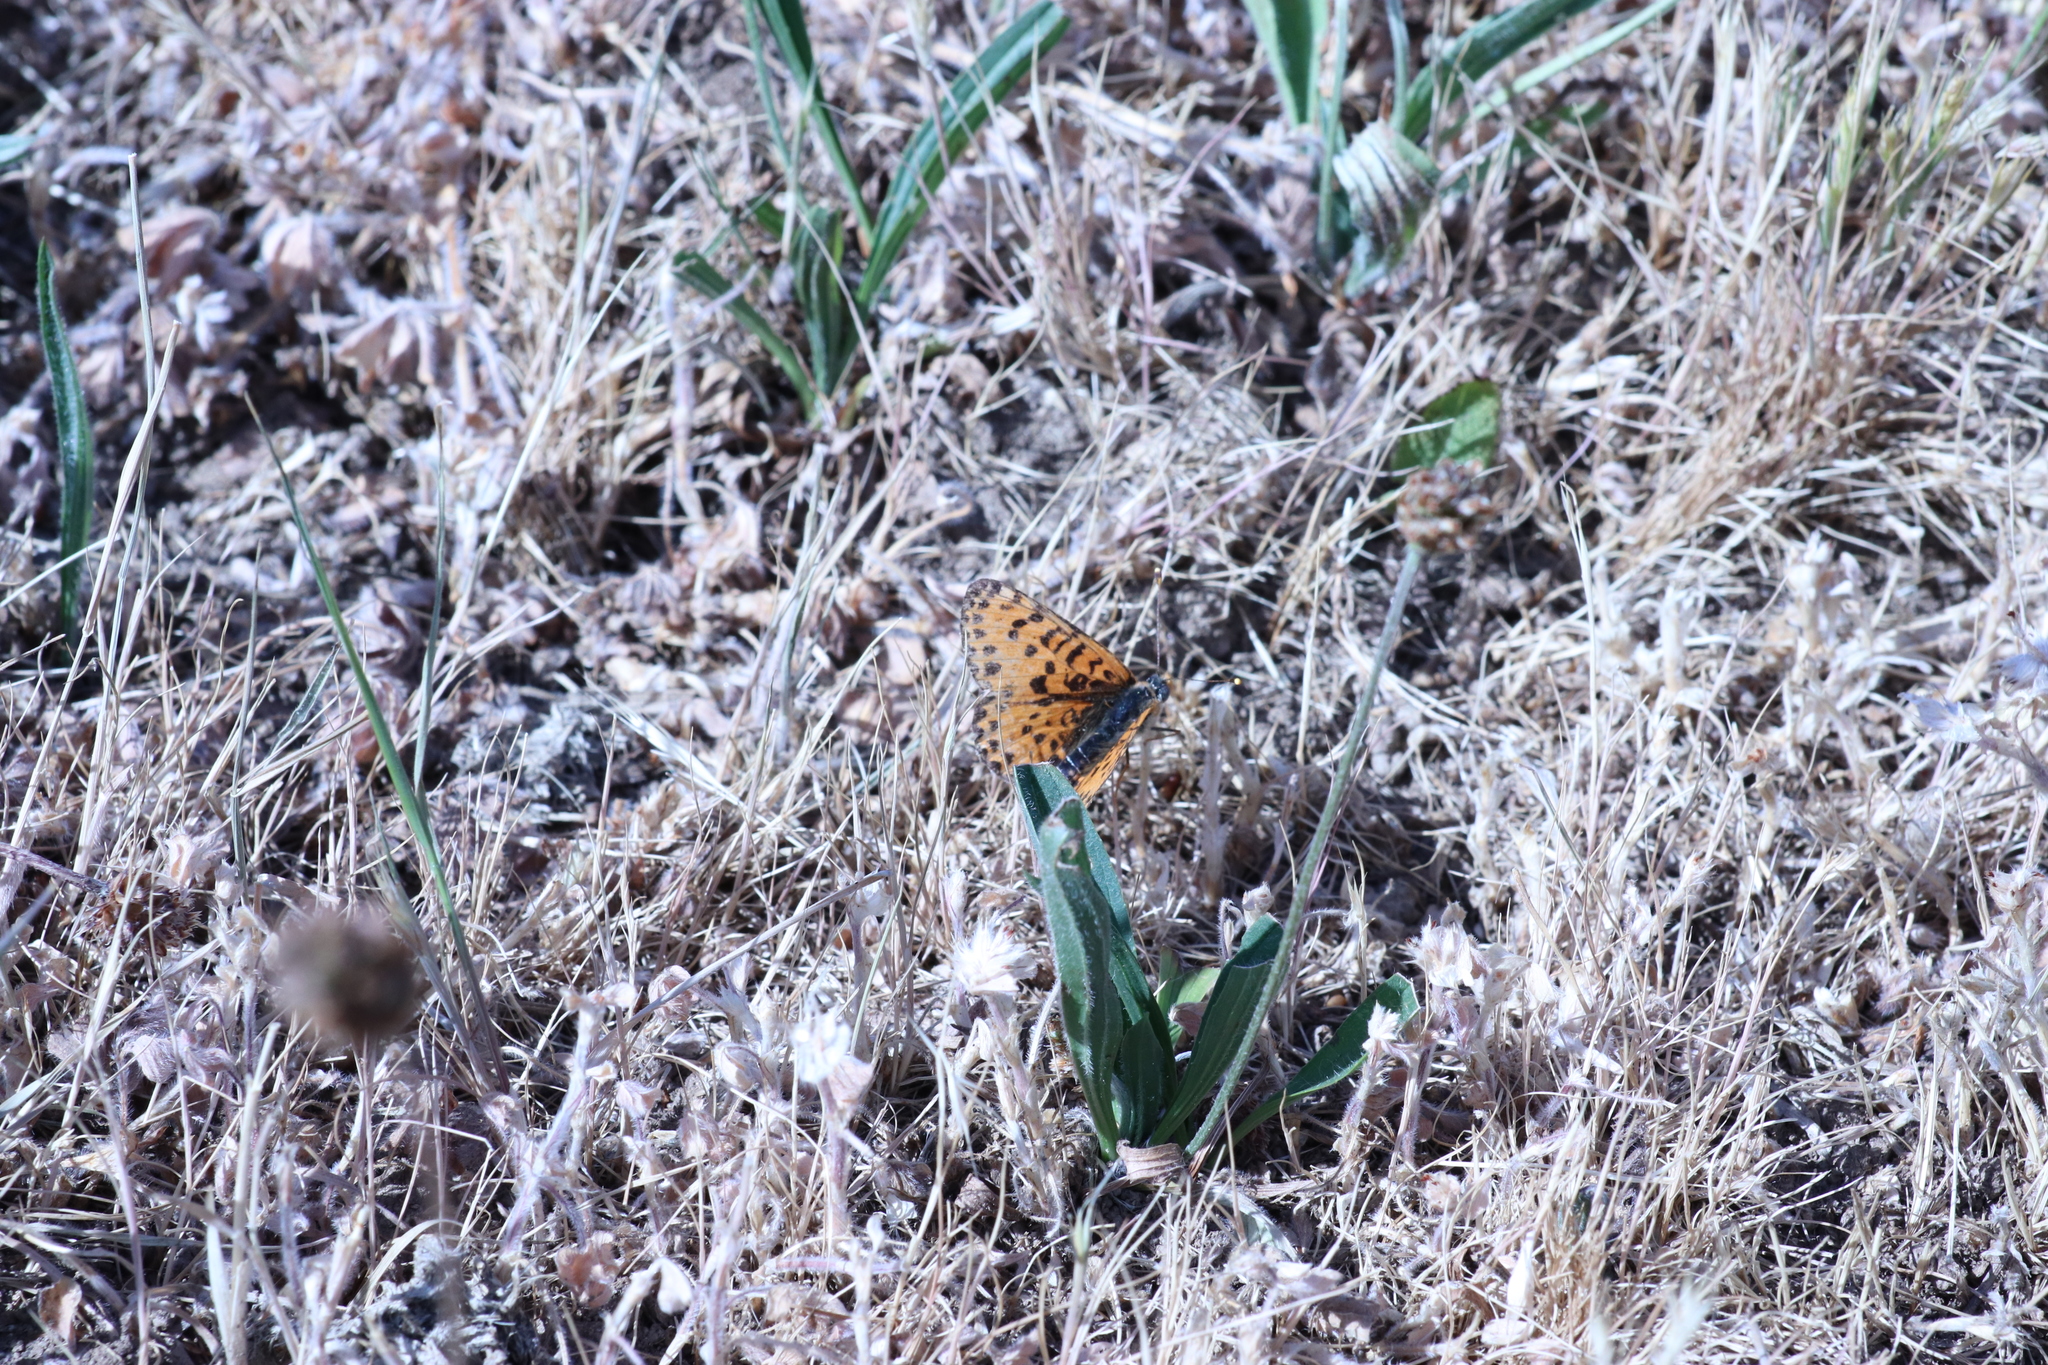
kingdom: Animalia
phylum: Arthropoda
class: Insecta
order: Lepidoptera
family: Nymphalidae
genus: Melitaea
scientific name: Melitaea didyma
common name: Spotted fritillary
